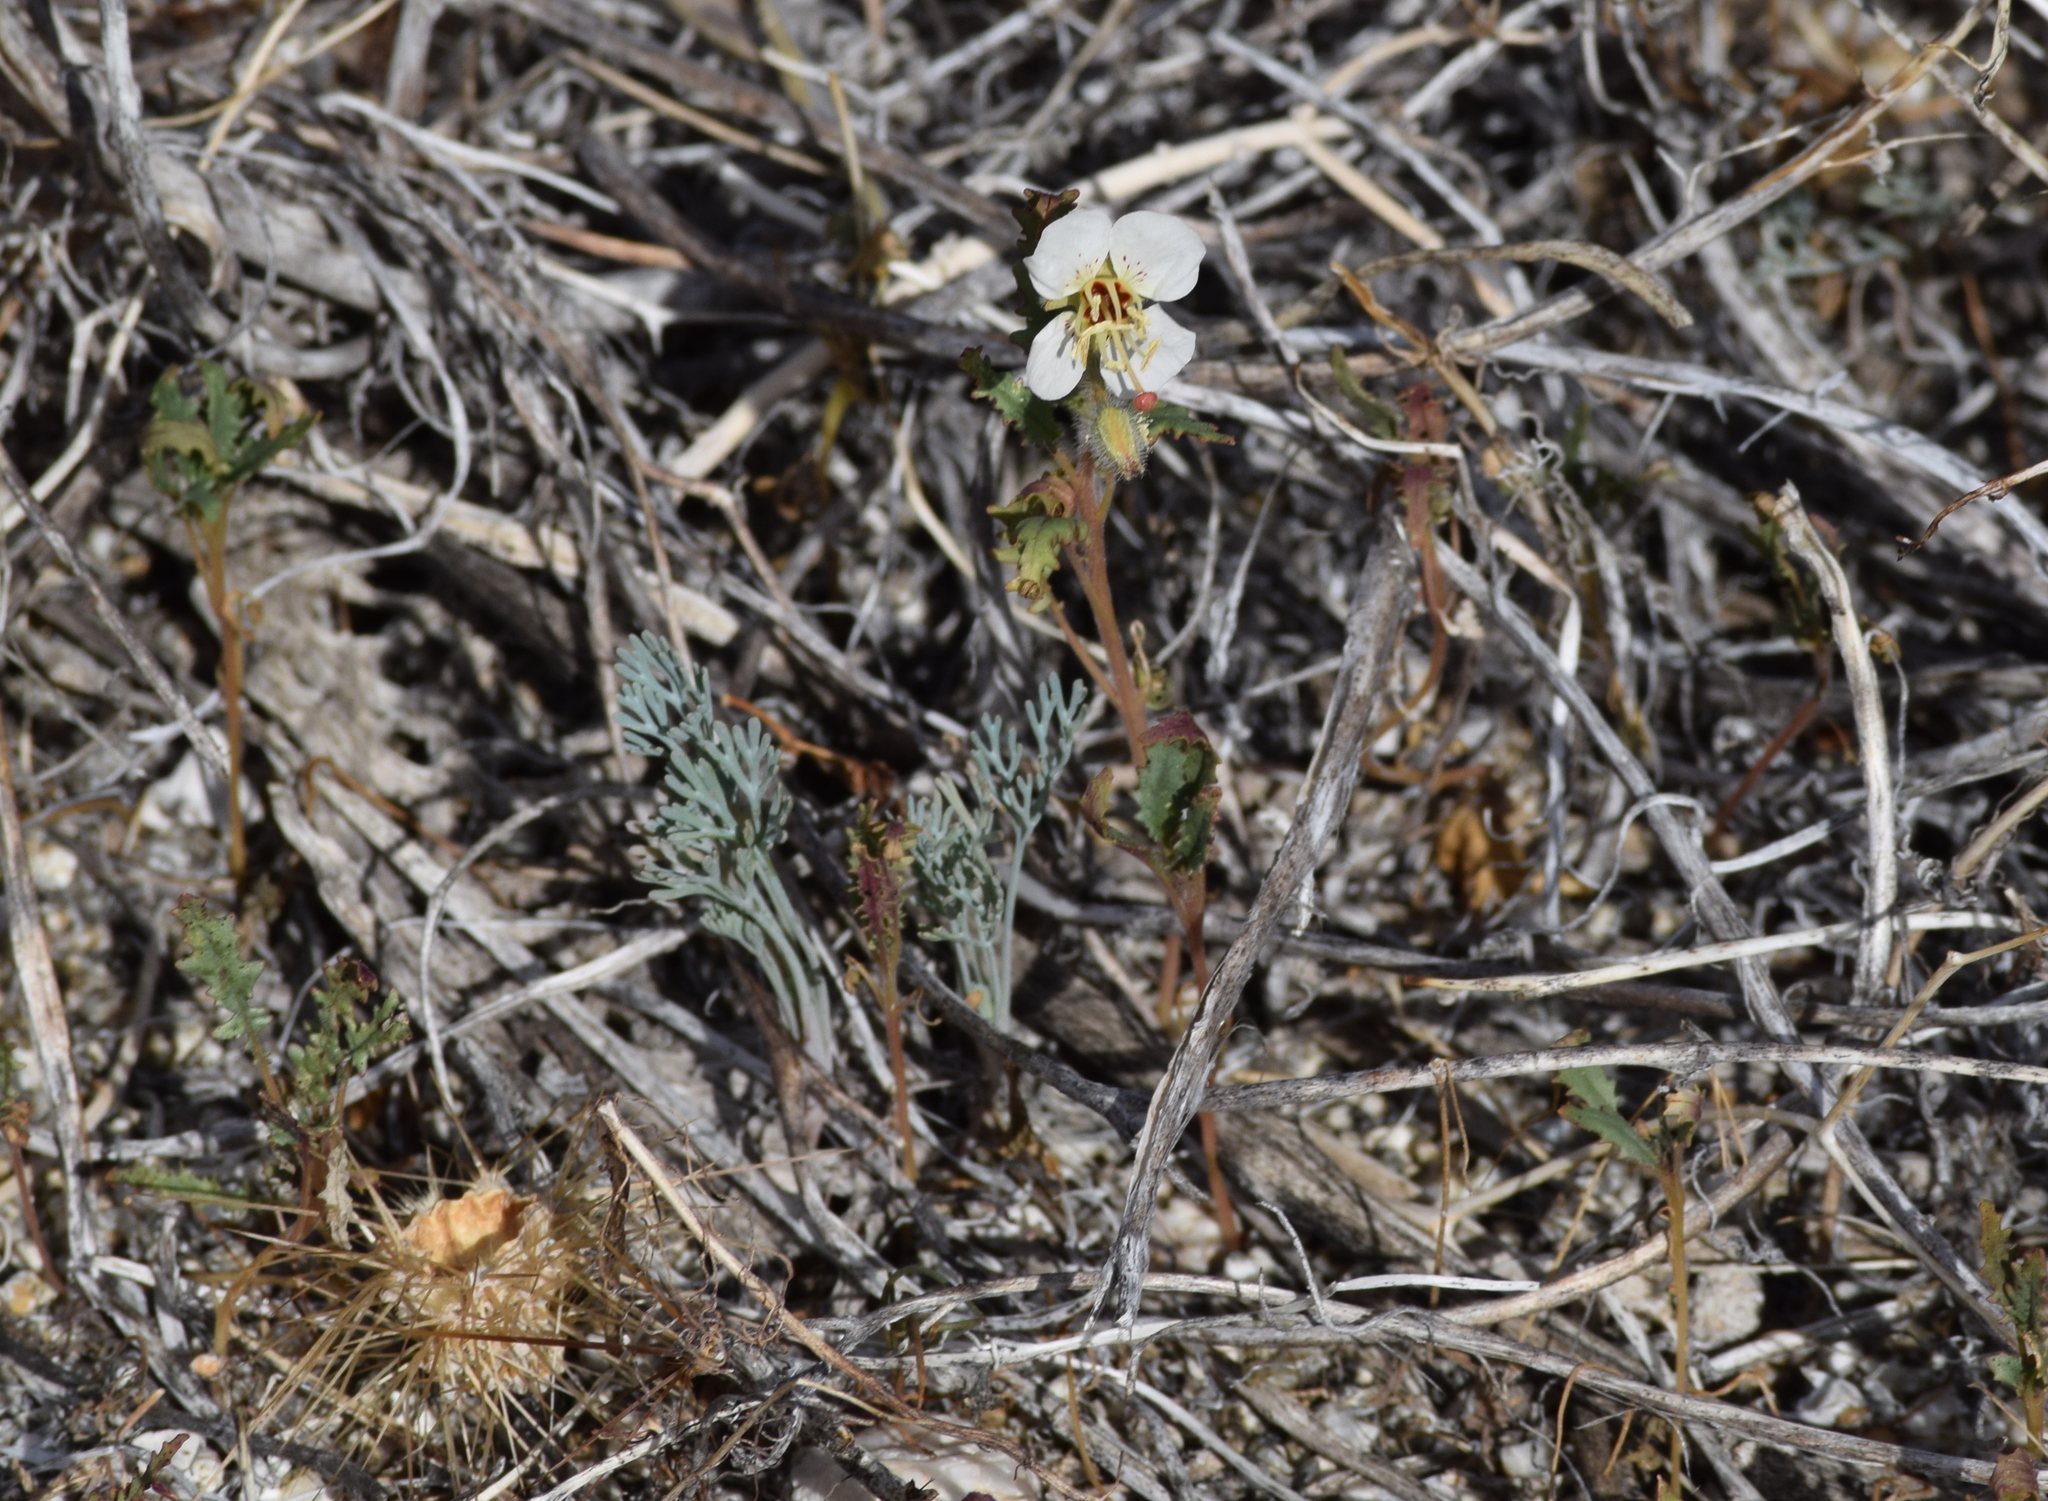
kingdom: Plantae
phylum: Tracheophyta
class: Magnoliopsida
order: Myrtales
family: Onagraceae
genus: Chylismia
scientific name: Chylismia claviformis
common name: Browneyes
